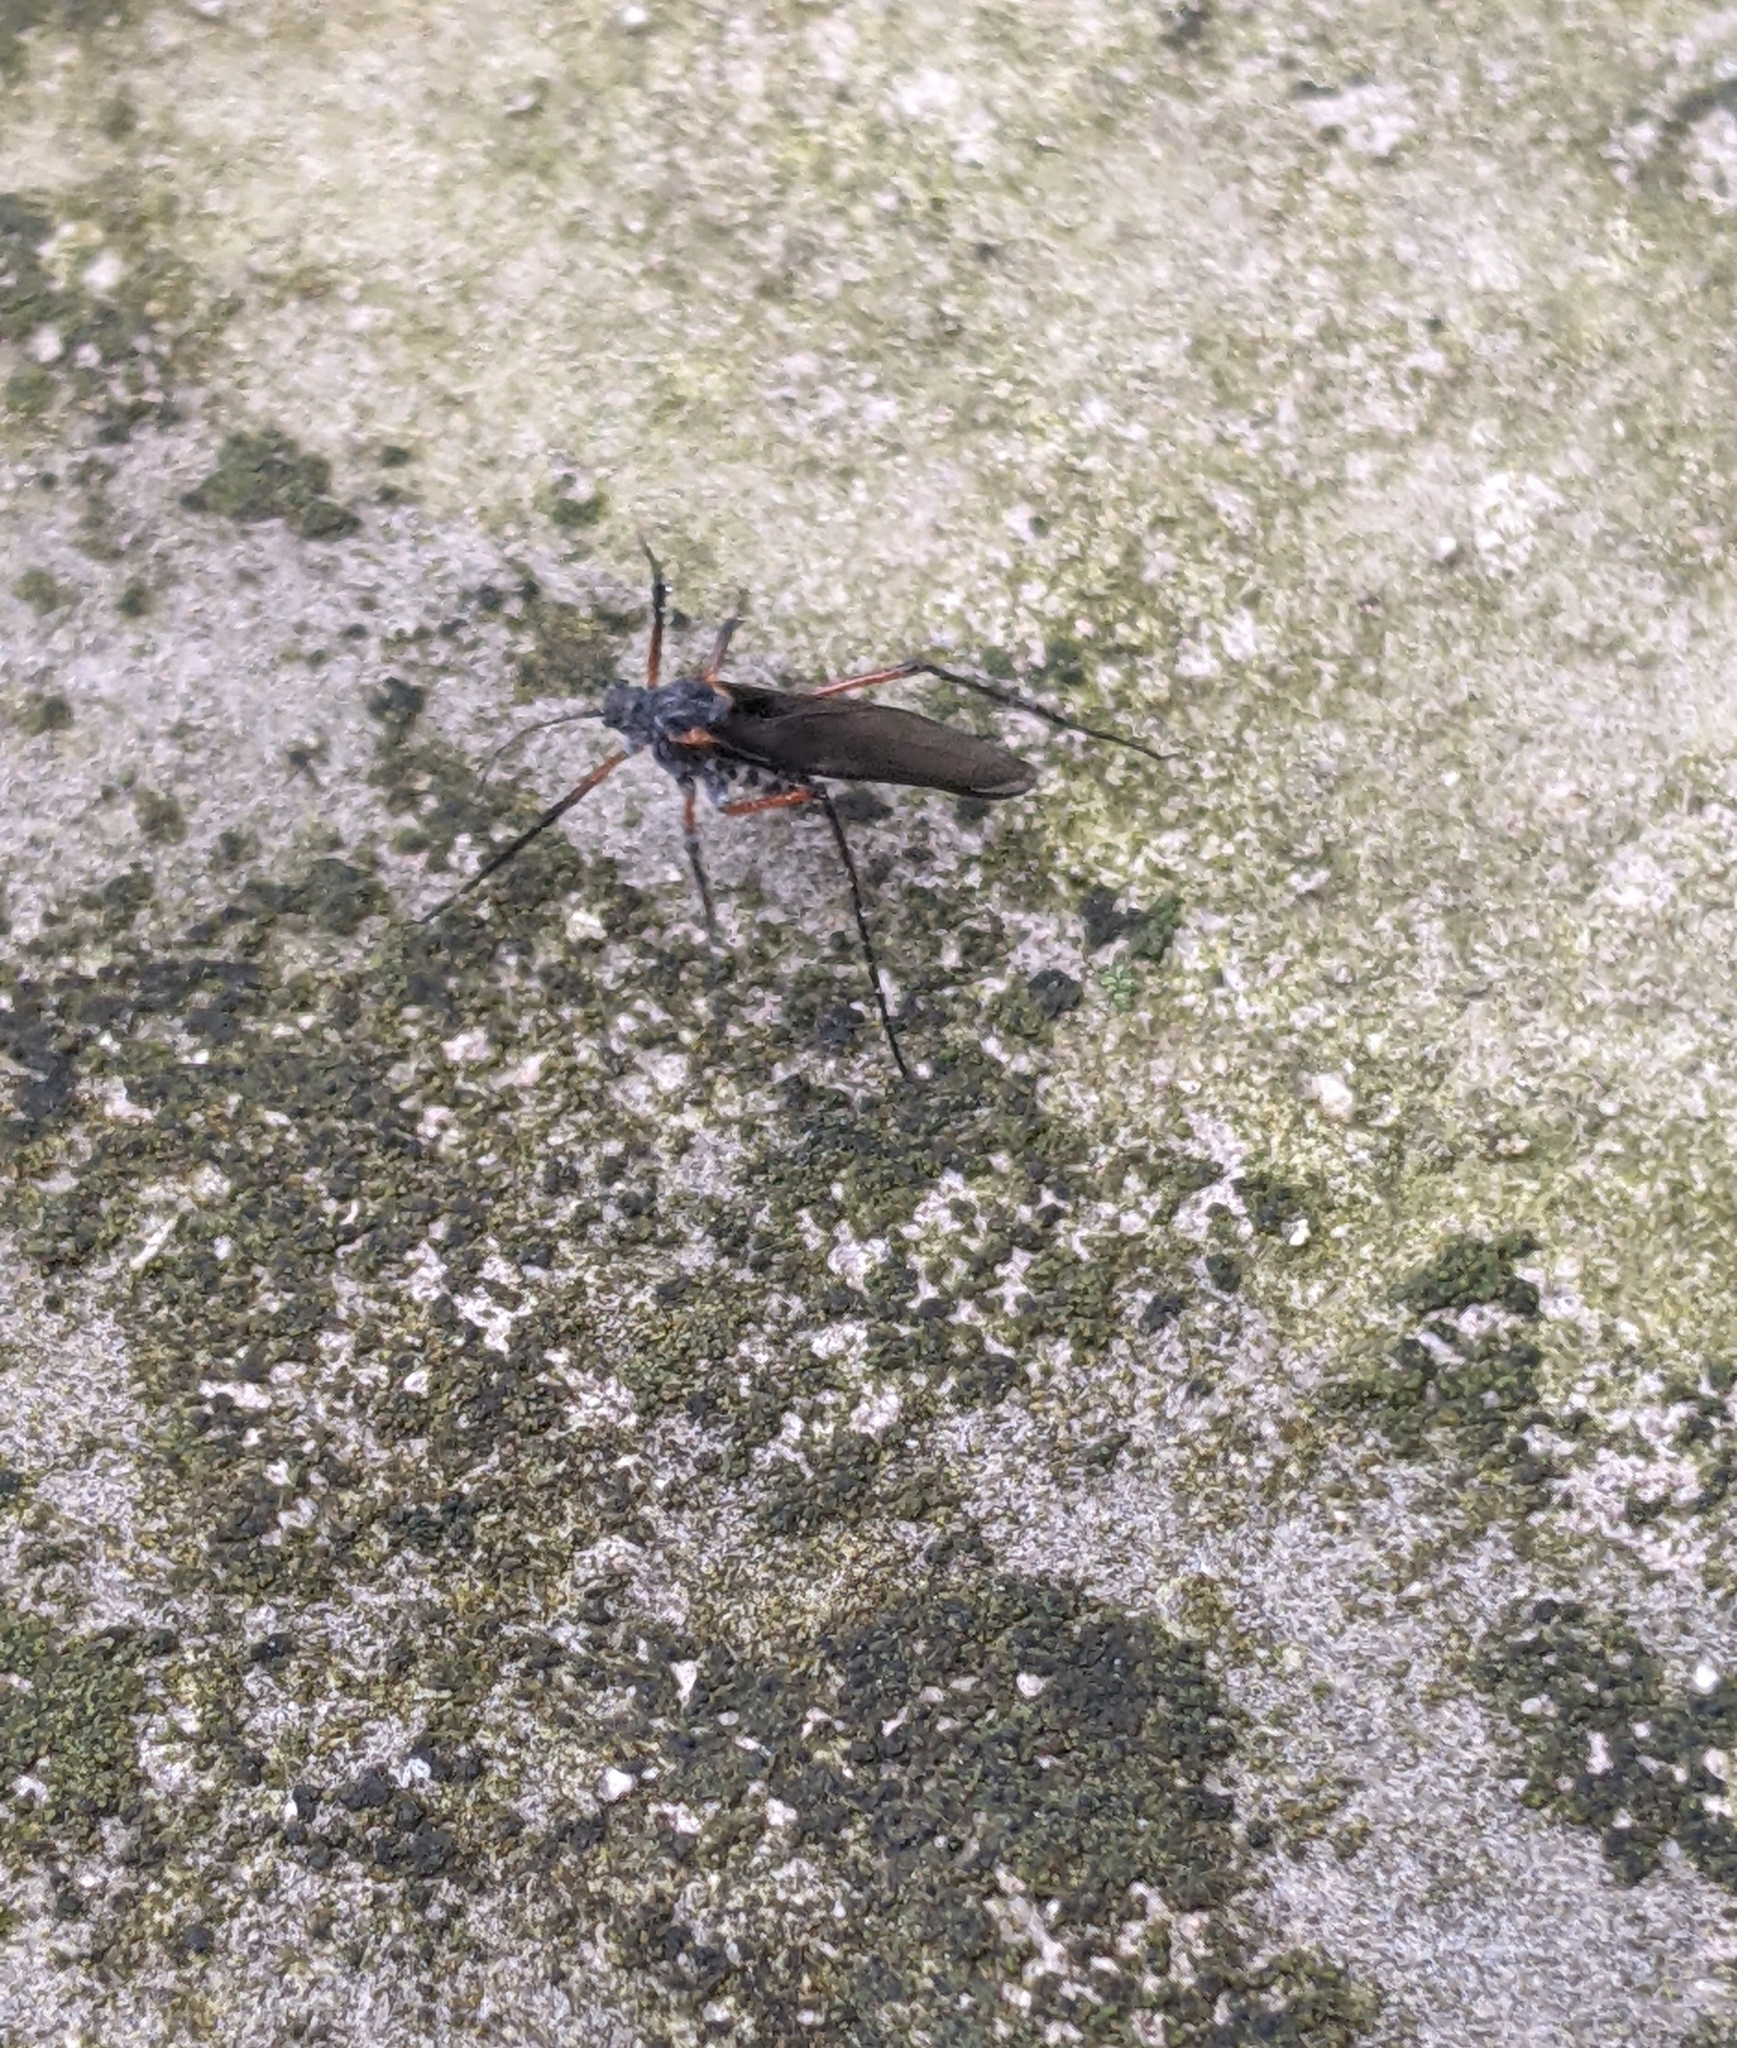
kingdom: Animalia
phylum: Arthropoda
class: Insecta
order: Hemiptera
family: Aphididae
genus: Longistigma
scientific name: Longistigma caryae
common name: Giant bark aphid
